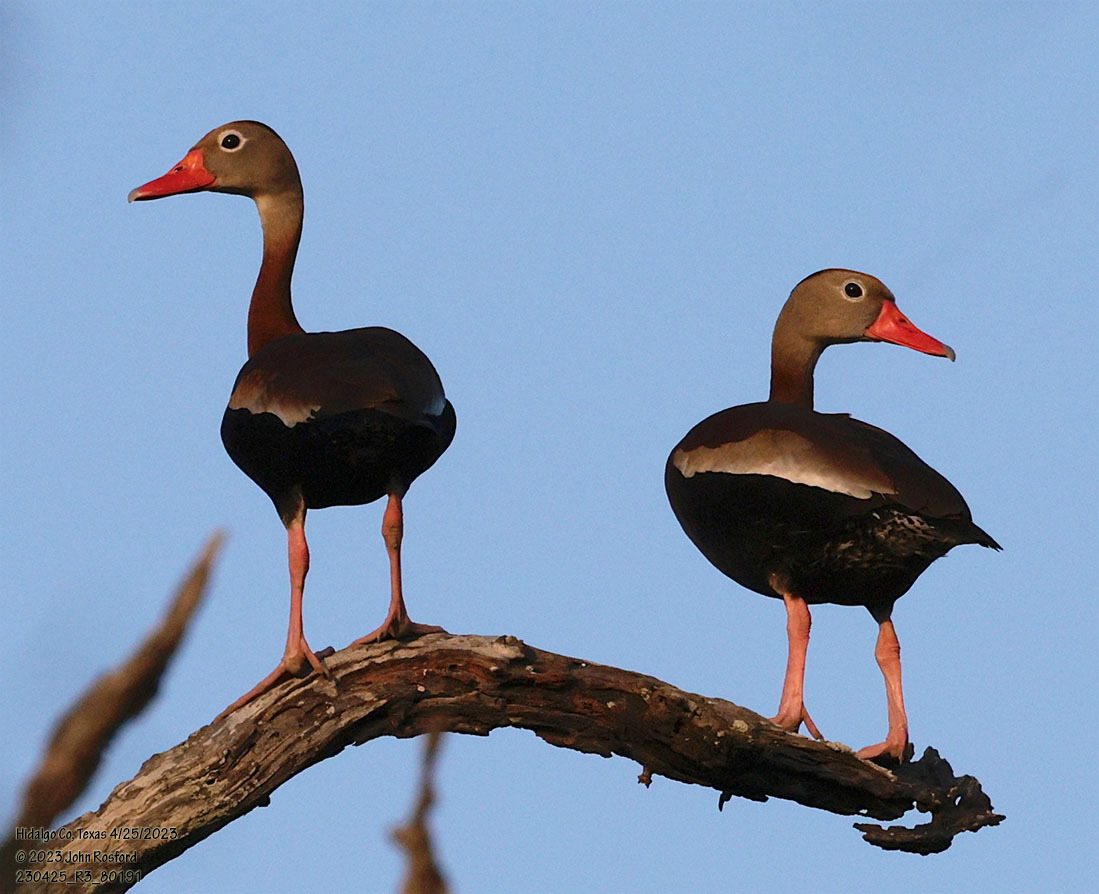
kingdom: Animalia
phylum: Chordata
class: Aves
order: Anseriformes
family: Anatidae
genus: Dendrocygna
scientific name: Dendrocygna autumnalis
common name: Black-bellied whistling duck
